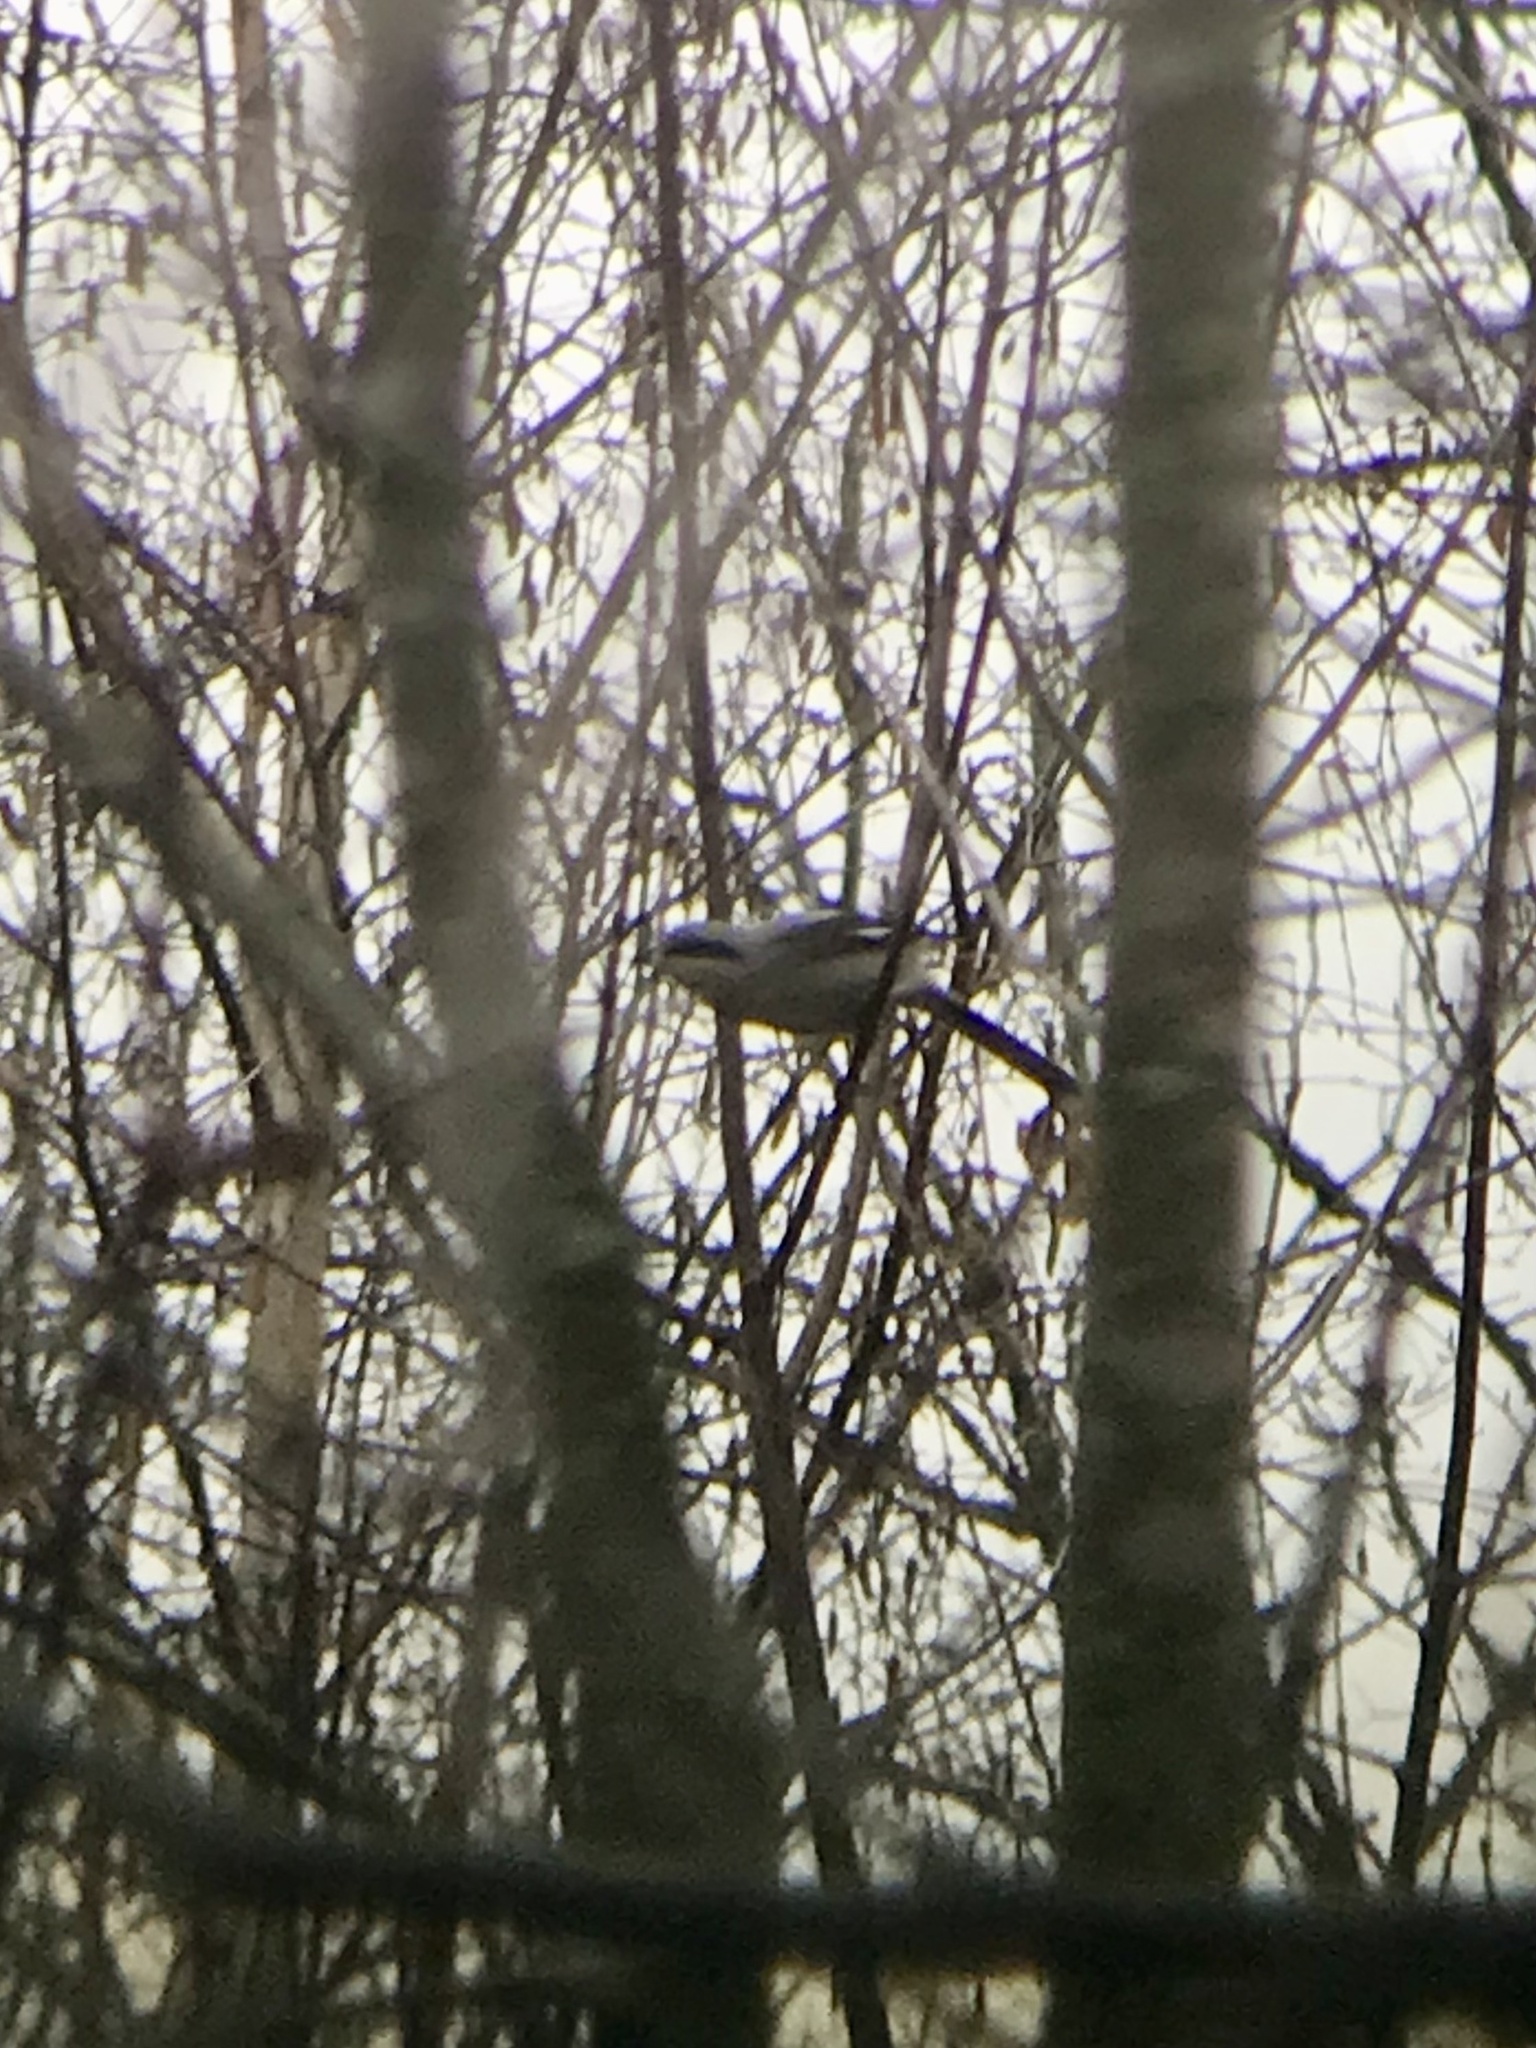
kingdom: Animalia
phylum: Chordata
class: Aves
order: Passeriformes
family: Laniidae
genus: Lanius
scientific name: Lanius borealis
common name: Northern shrike
